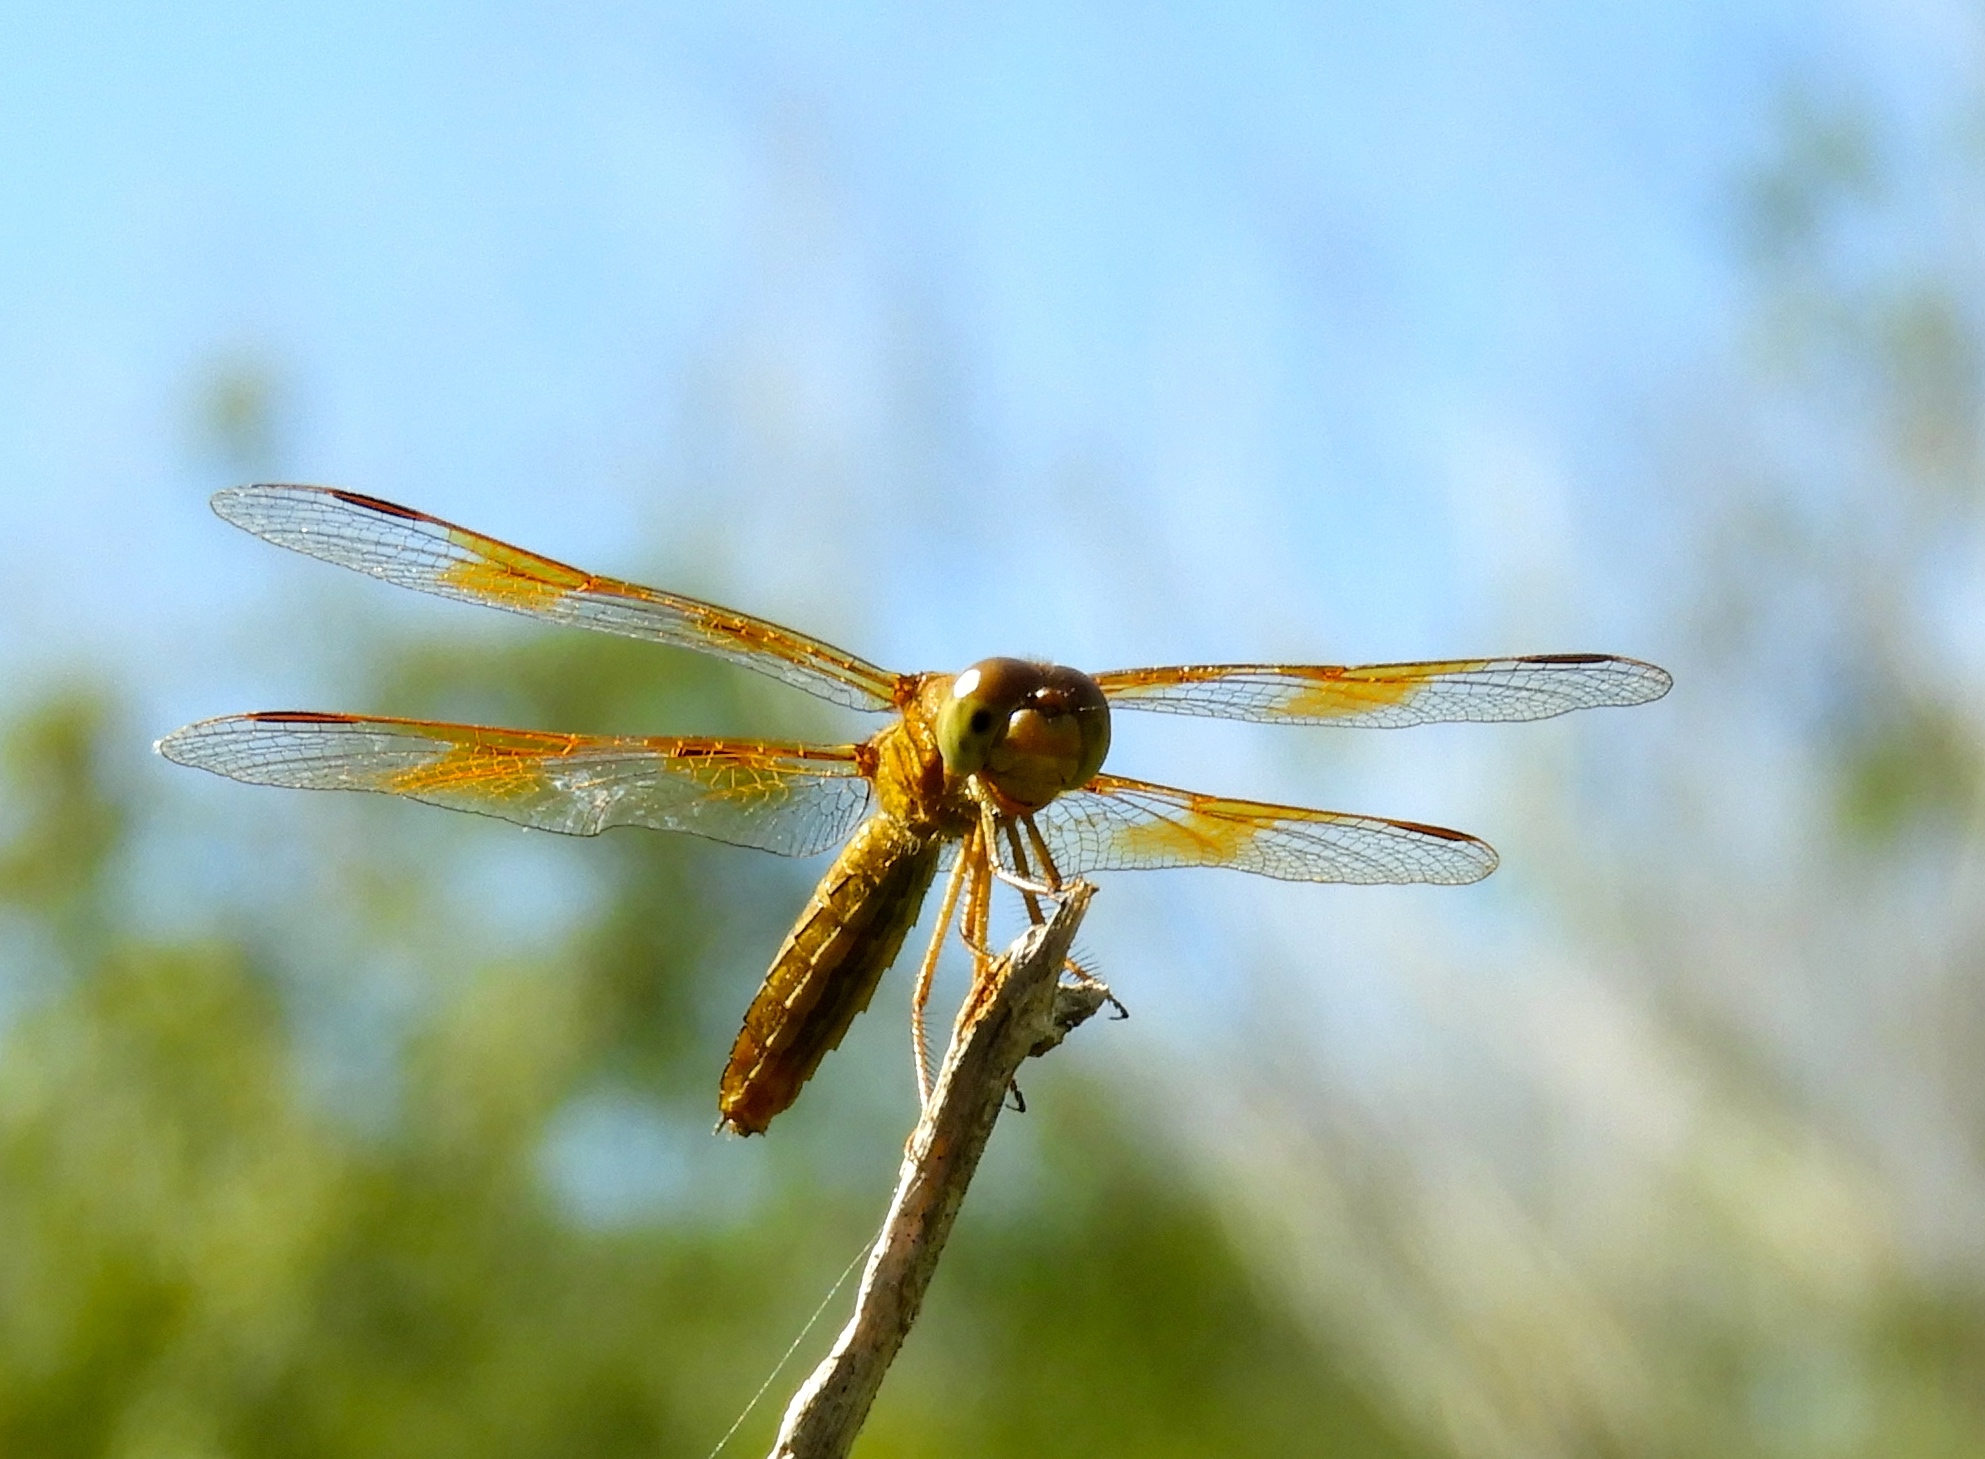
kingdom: Animalia
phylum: Arthropoda
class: Insecta
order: Odonata
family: Libellulidae
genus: Perithemis
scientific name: Perithemis intensa
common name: Mexican amberwing
